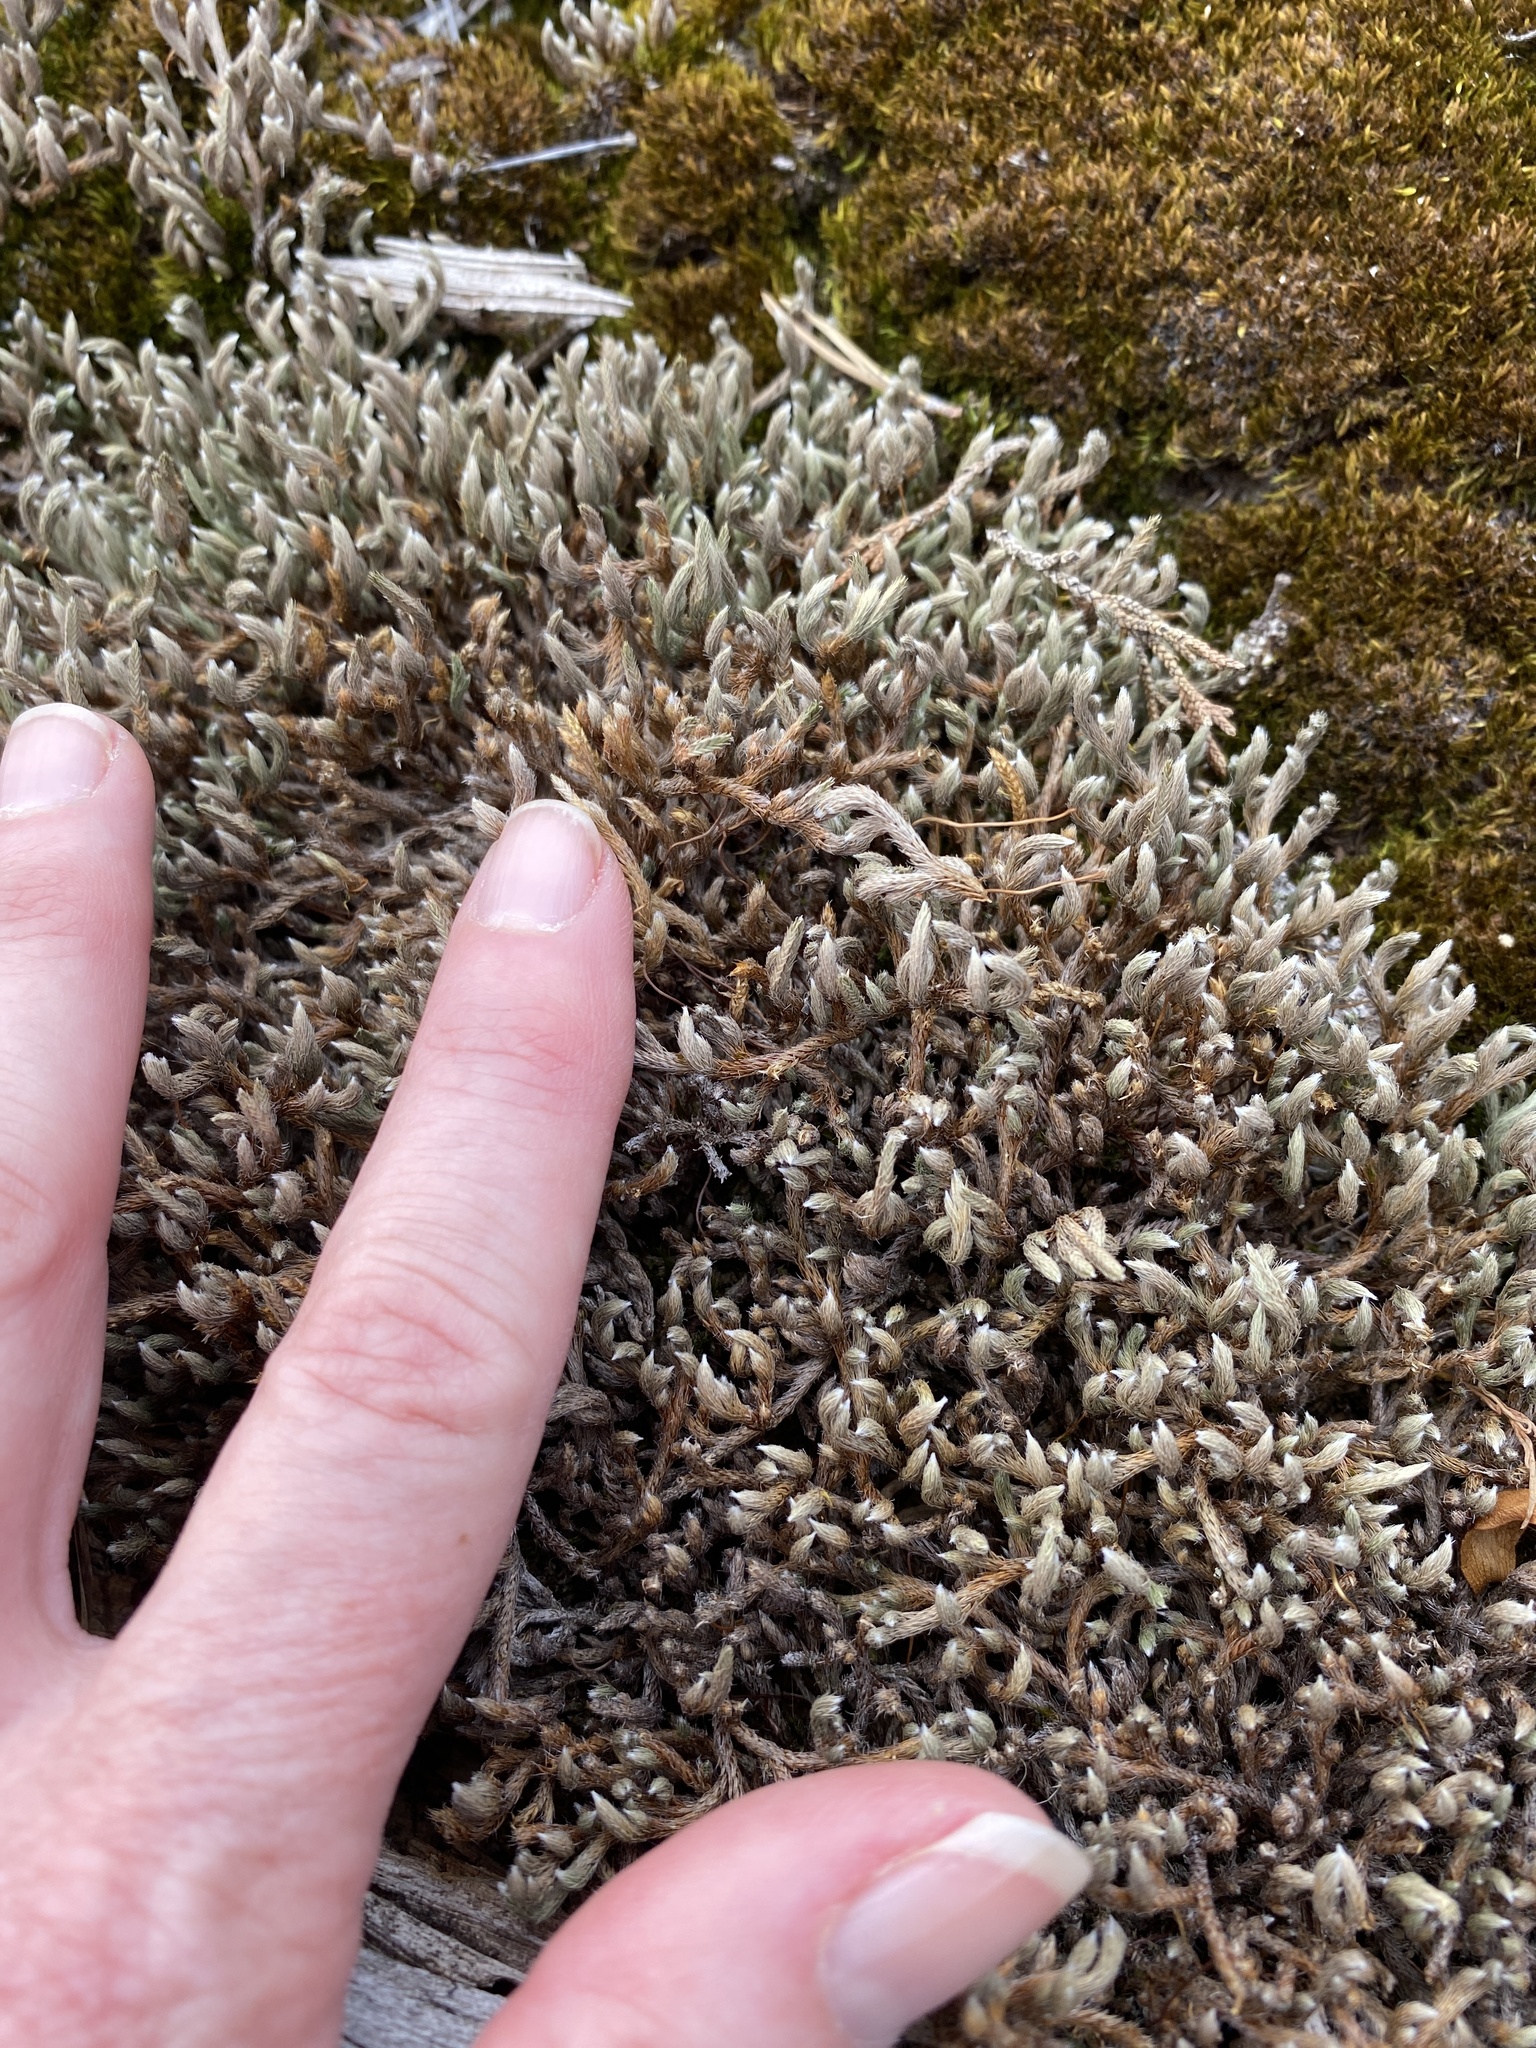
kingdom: Plantae
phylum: Tracheophyta
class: Lycopodiopsida
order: Selaginellales
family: Selaginellaceae
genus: Selaginella
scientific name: Selaginella rupestris
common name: Dwarf spikemoss
